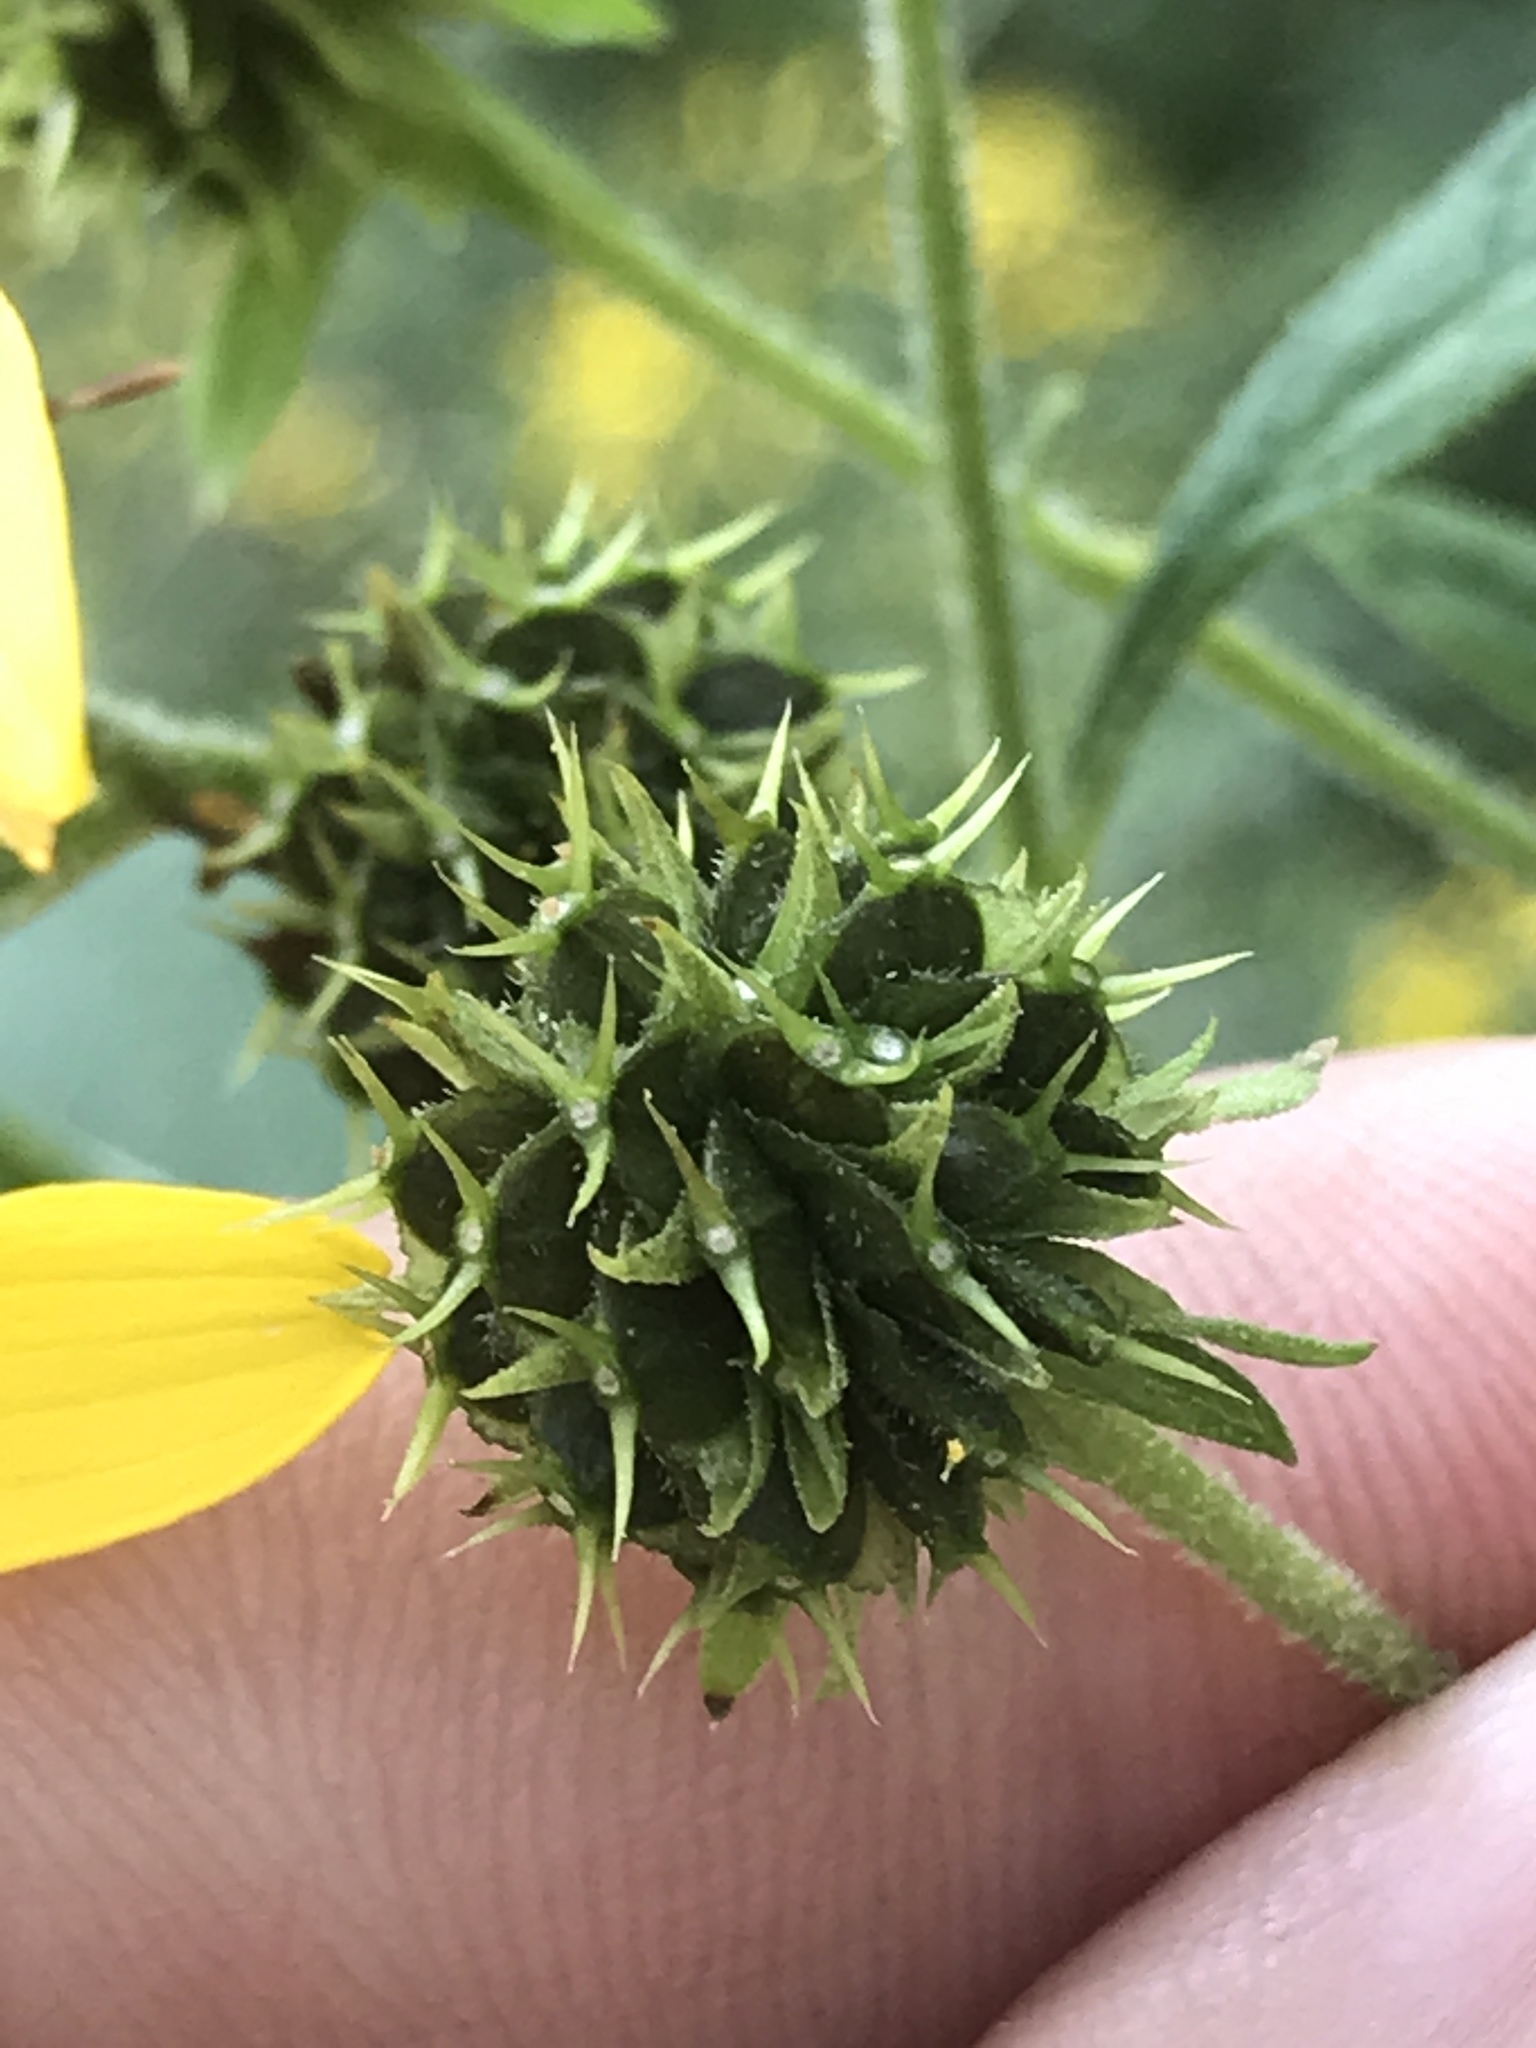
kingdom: Plantae
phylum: Tracheophyta
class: Magnoliopsida
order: Asterales
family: Asteraceae
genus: Verbesina
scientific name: Verbesina alternifolia
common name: Wingstem
